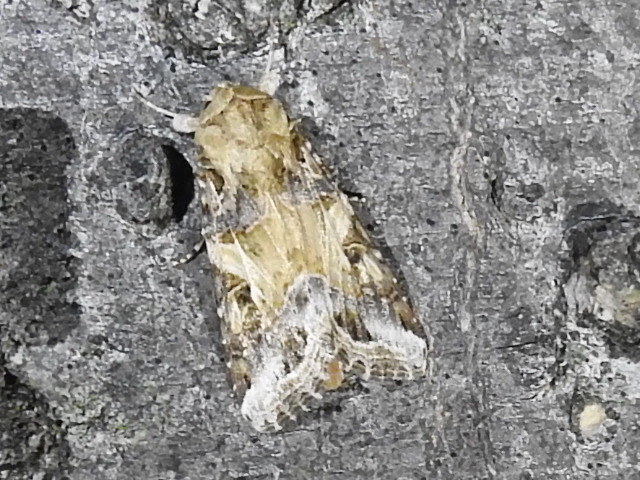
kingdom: Animalia
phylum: Arthropoda
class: Insecta
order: Lepidoptera
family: Noctuidae
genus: Spodoptera
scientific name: Spodoptera ornithogalli
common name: Yellow-striped armyworm
